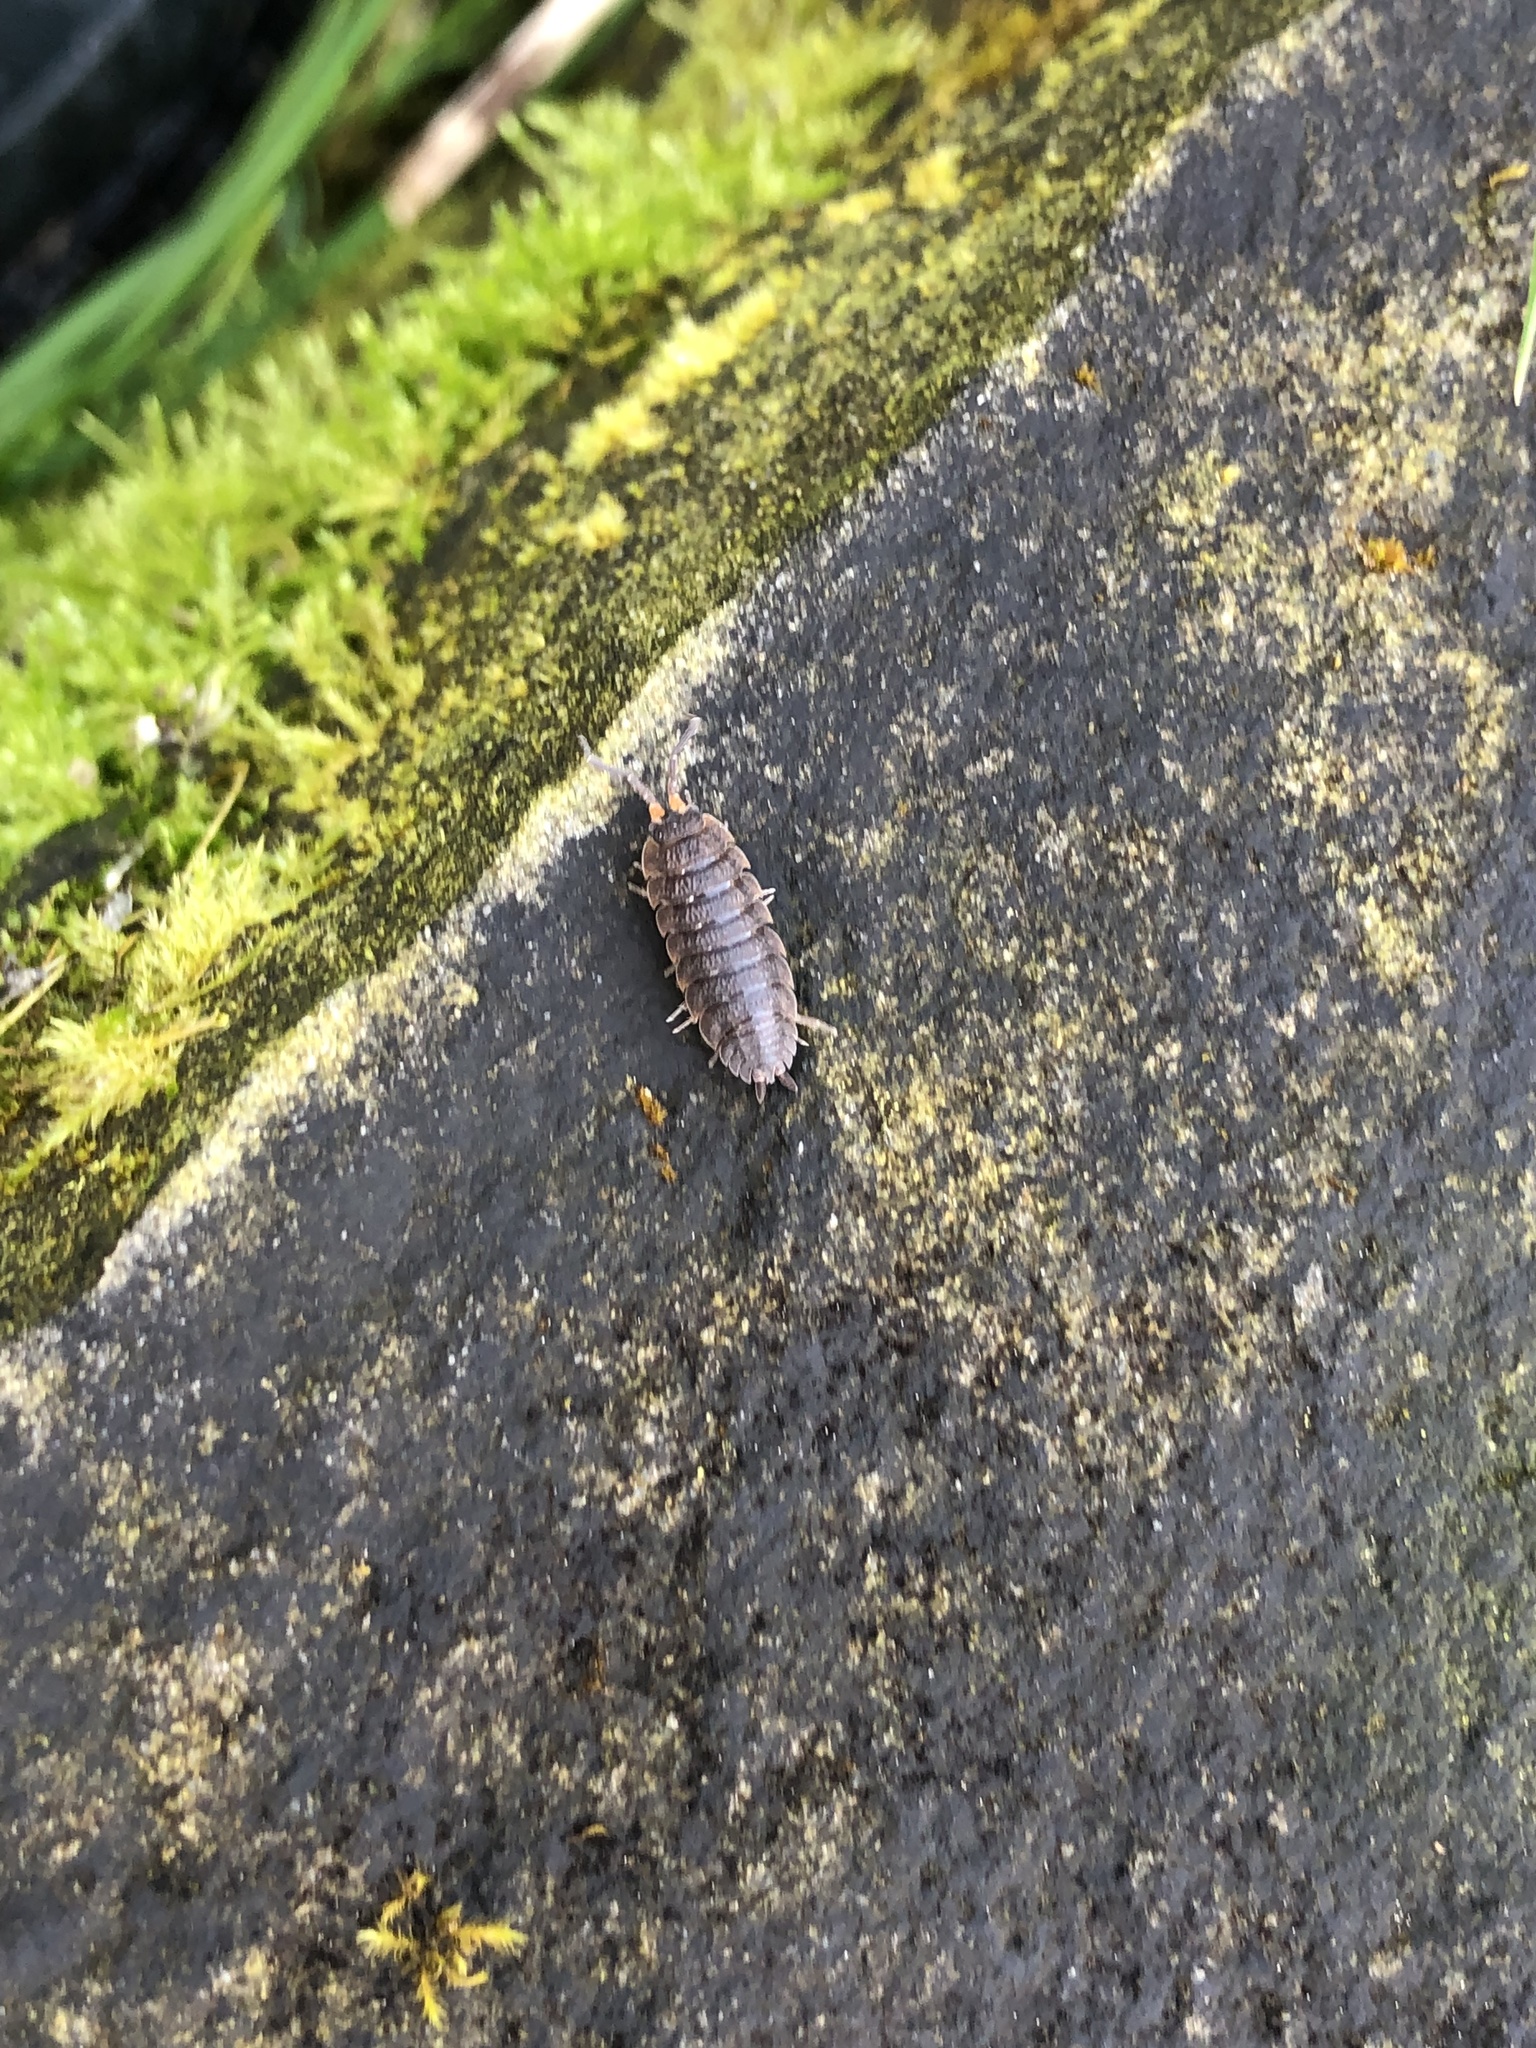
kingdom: Animalia
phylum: Arthropoda
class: Malacostraca
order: Isopoda
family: Porcellionidae
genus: Porcellio
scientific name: Porcellio scaber
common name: Common rough woodlouse
